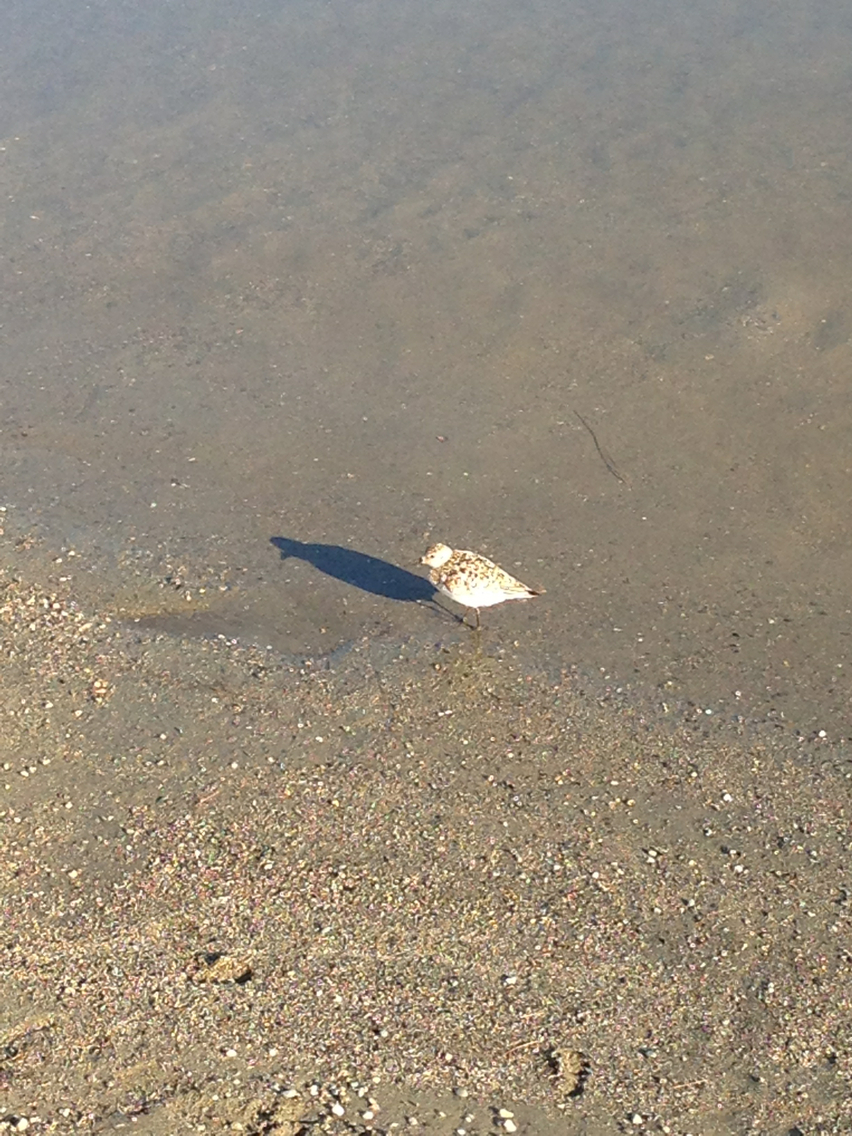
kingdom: Animalia
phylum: Chordata
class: Aves
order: Charadriiformes
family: Scolopacidae
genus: Calidris
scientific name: Calidris alba
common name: Sanderling
